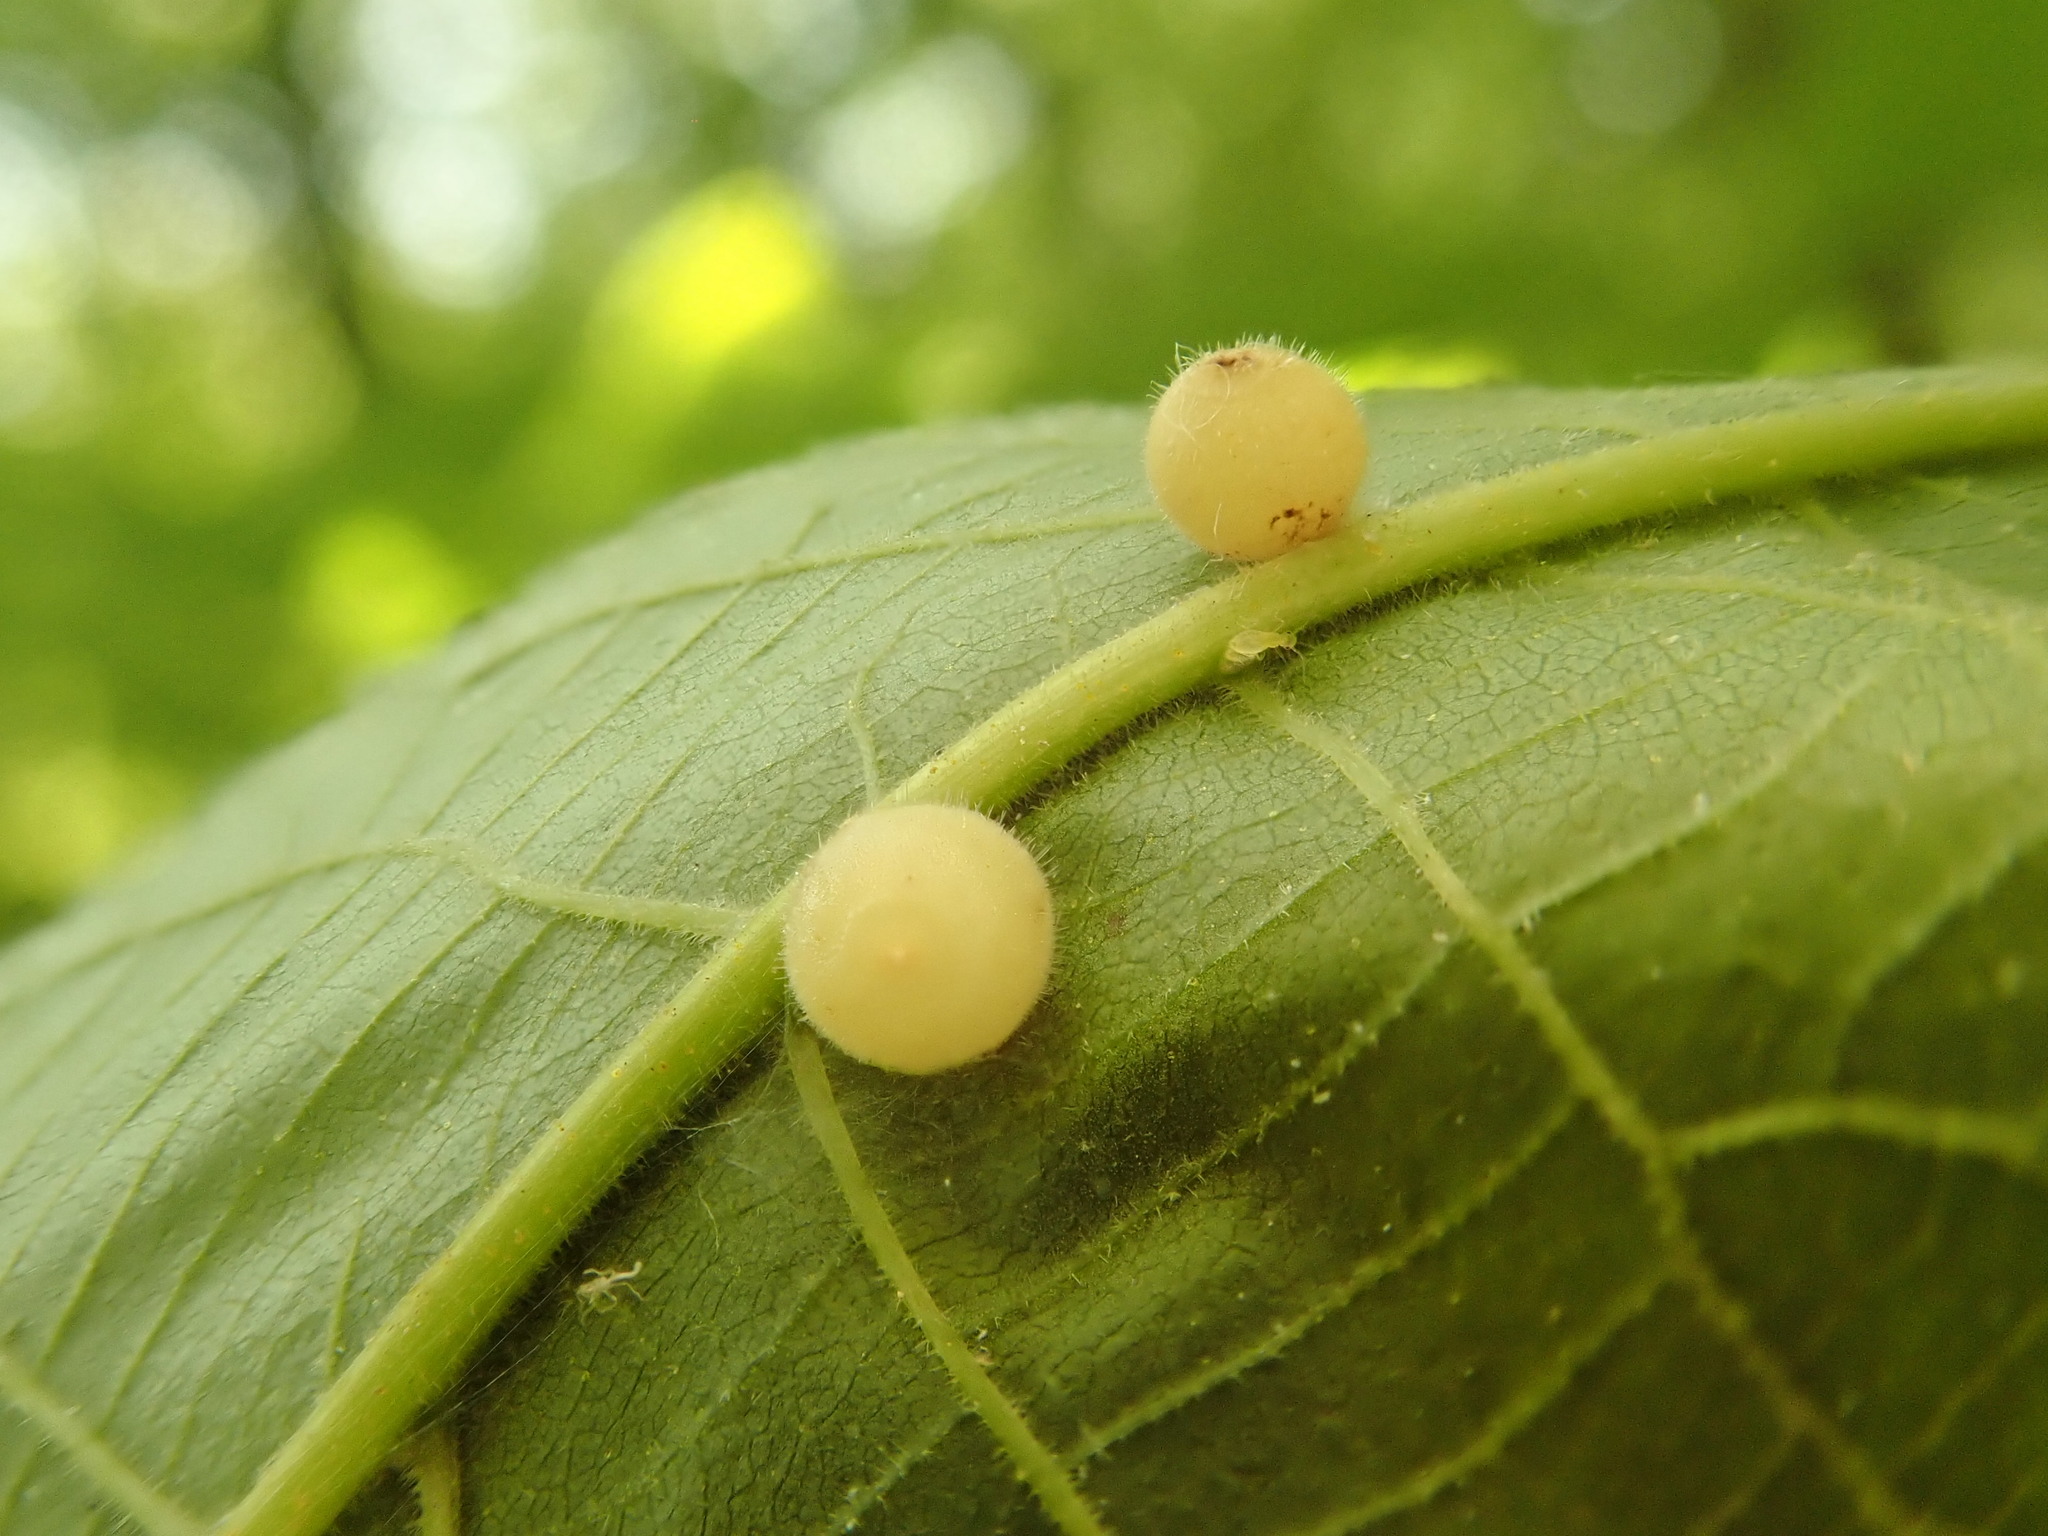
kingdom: Animalia
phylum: Arthropoda
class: Insecta
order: Diptera
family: Cecidomyiidae
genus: Caryomyia
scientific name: Caryomyia cilidolium
